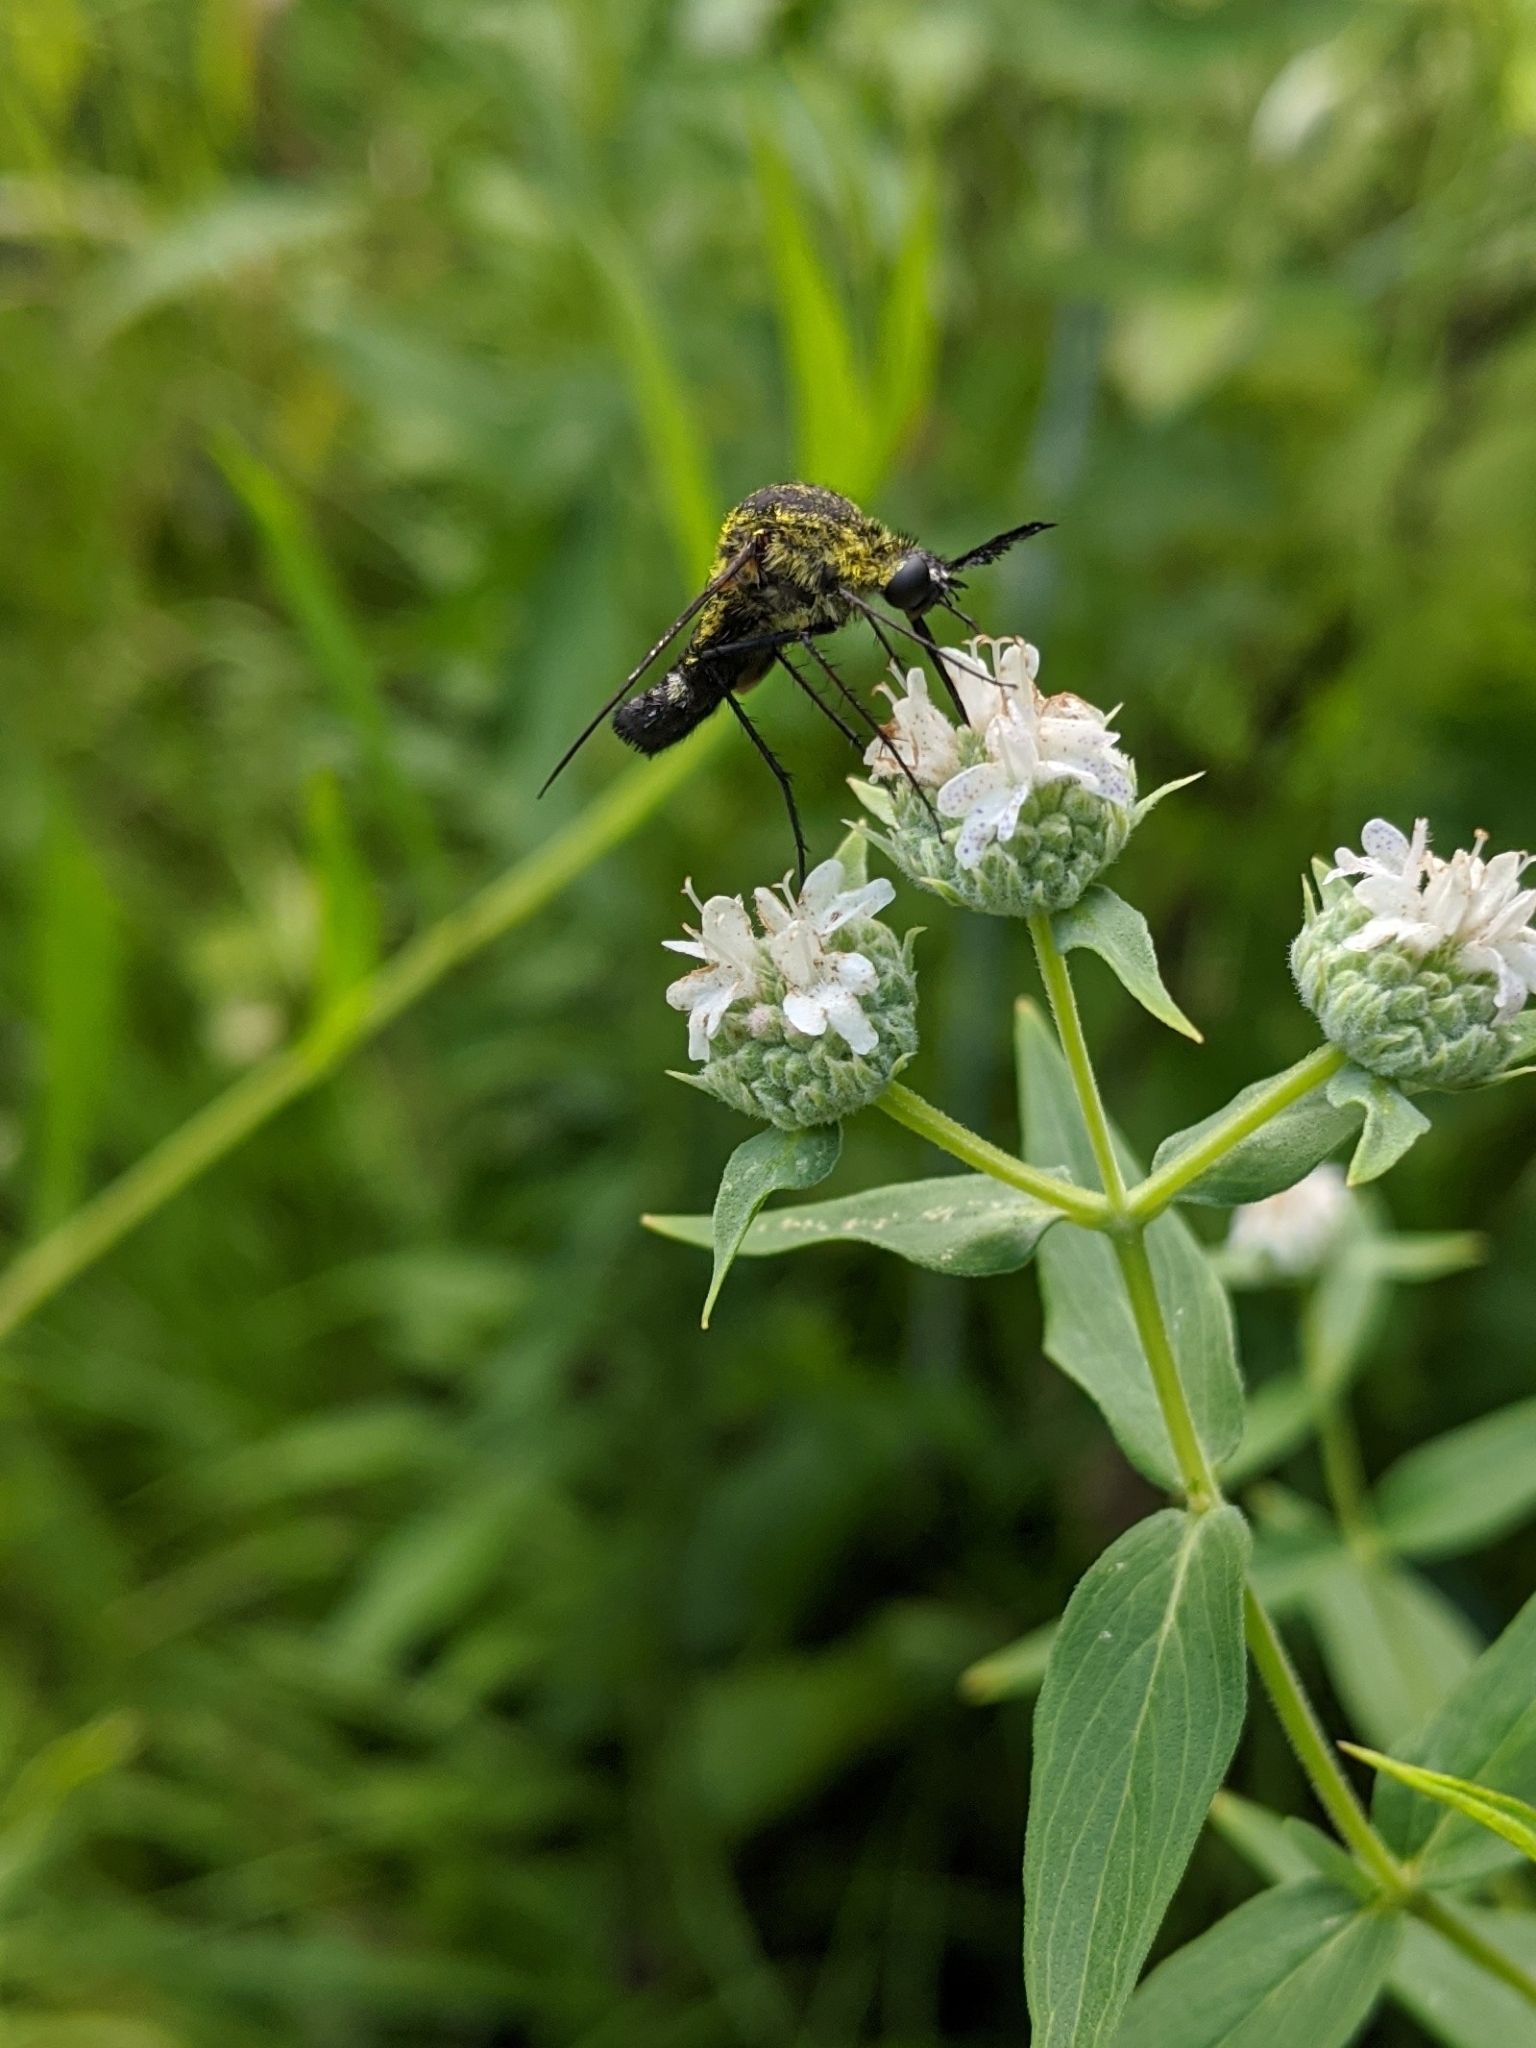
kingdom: Animalia
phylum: Arthropoda
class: Insecta
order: Diptera
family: Bombyliidae
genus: Lepidophora
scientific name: Lepidophora lutea
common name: Hunchback bee fly
